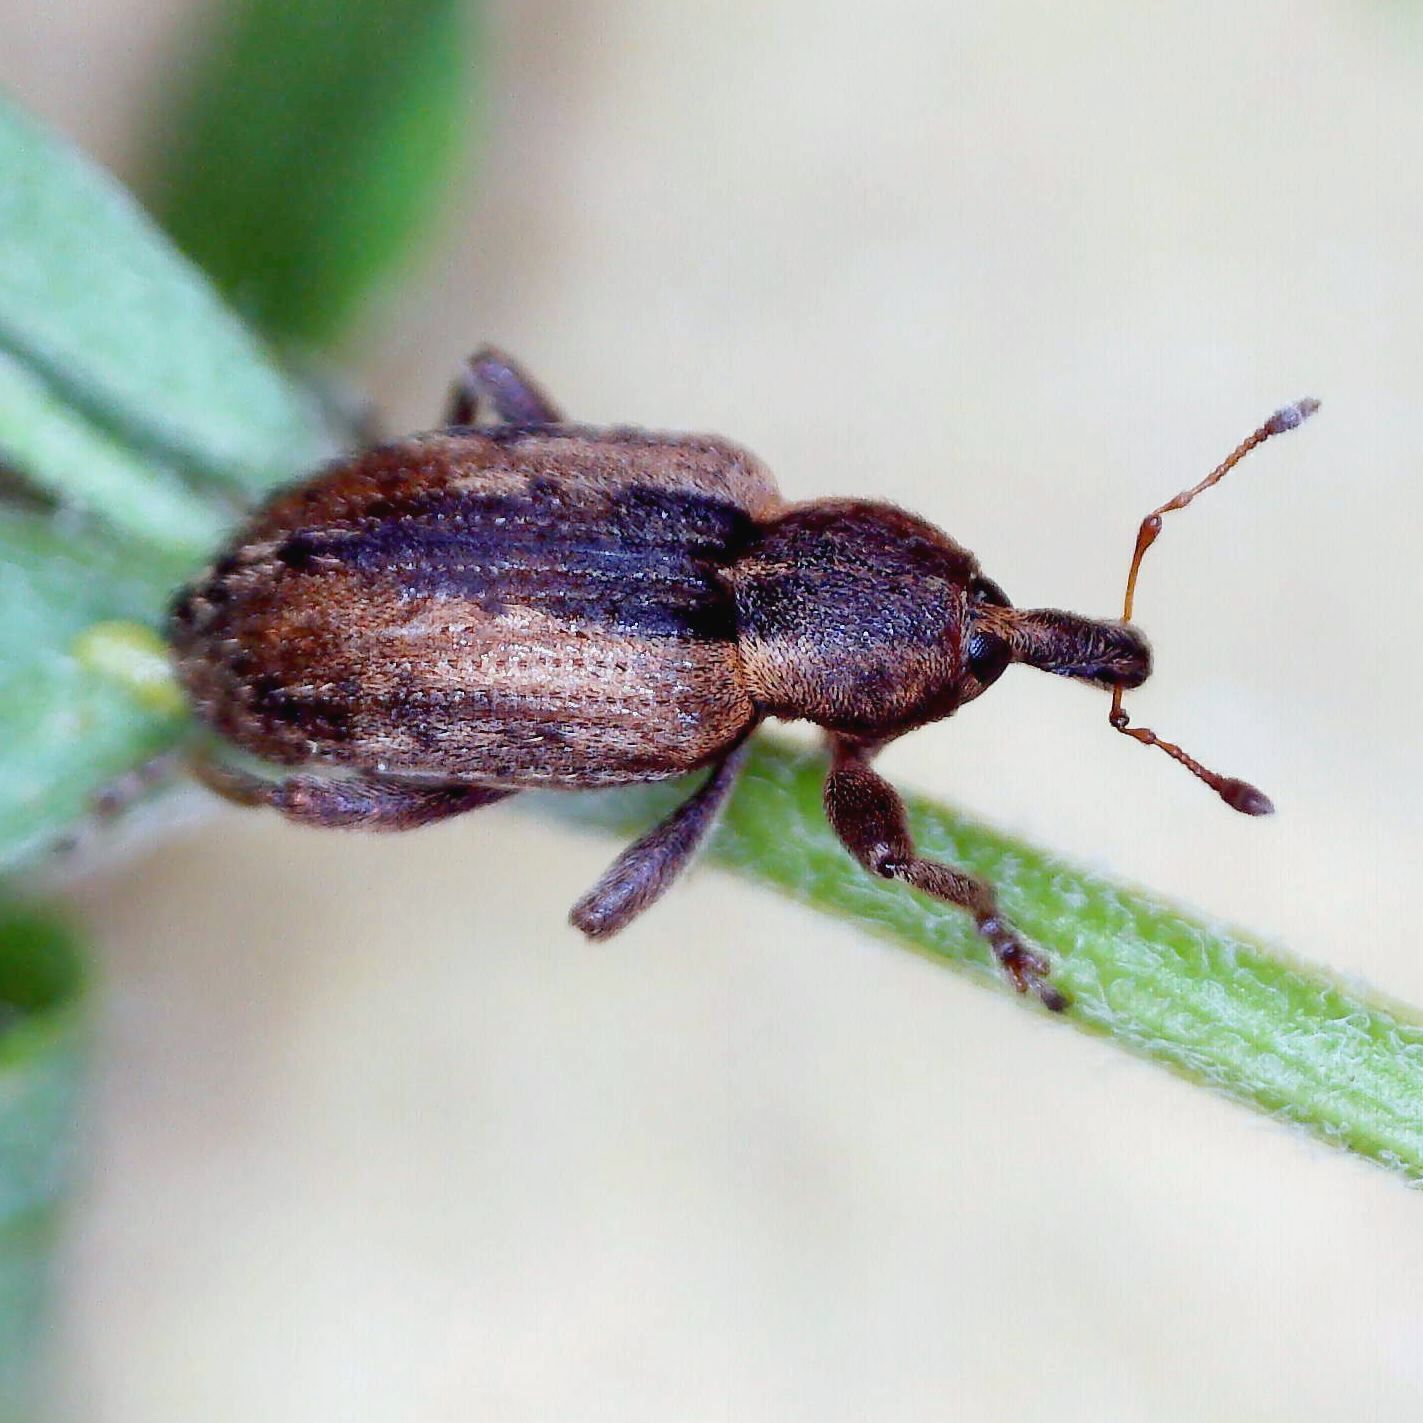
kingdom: Animalia
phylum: Arthropoda
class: Insecta
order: Coleoptera
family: Curculionidae
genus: Hypera
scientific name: Hypera postica
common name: Weevil
